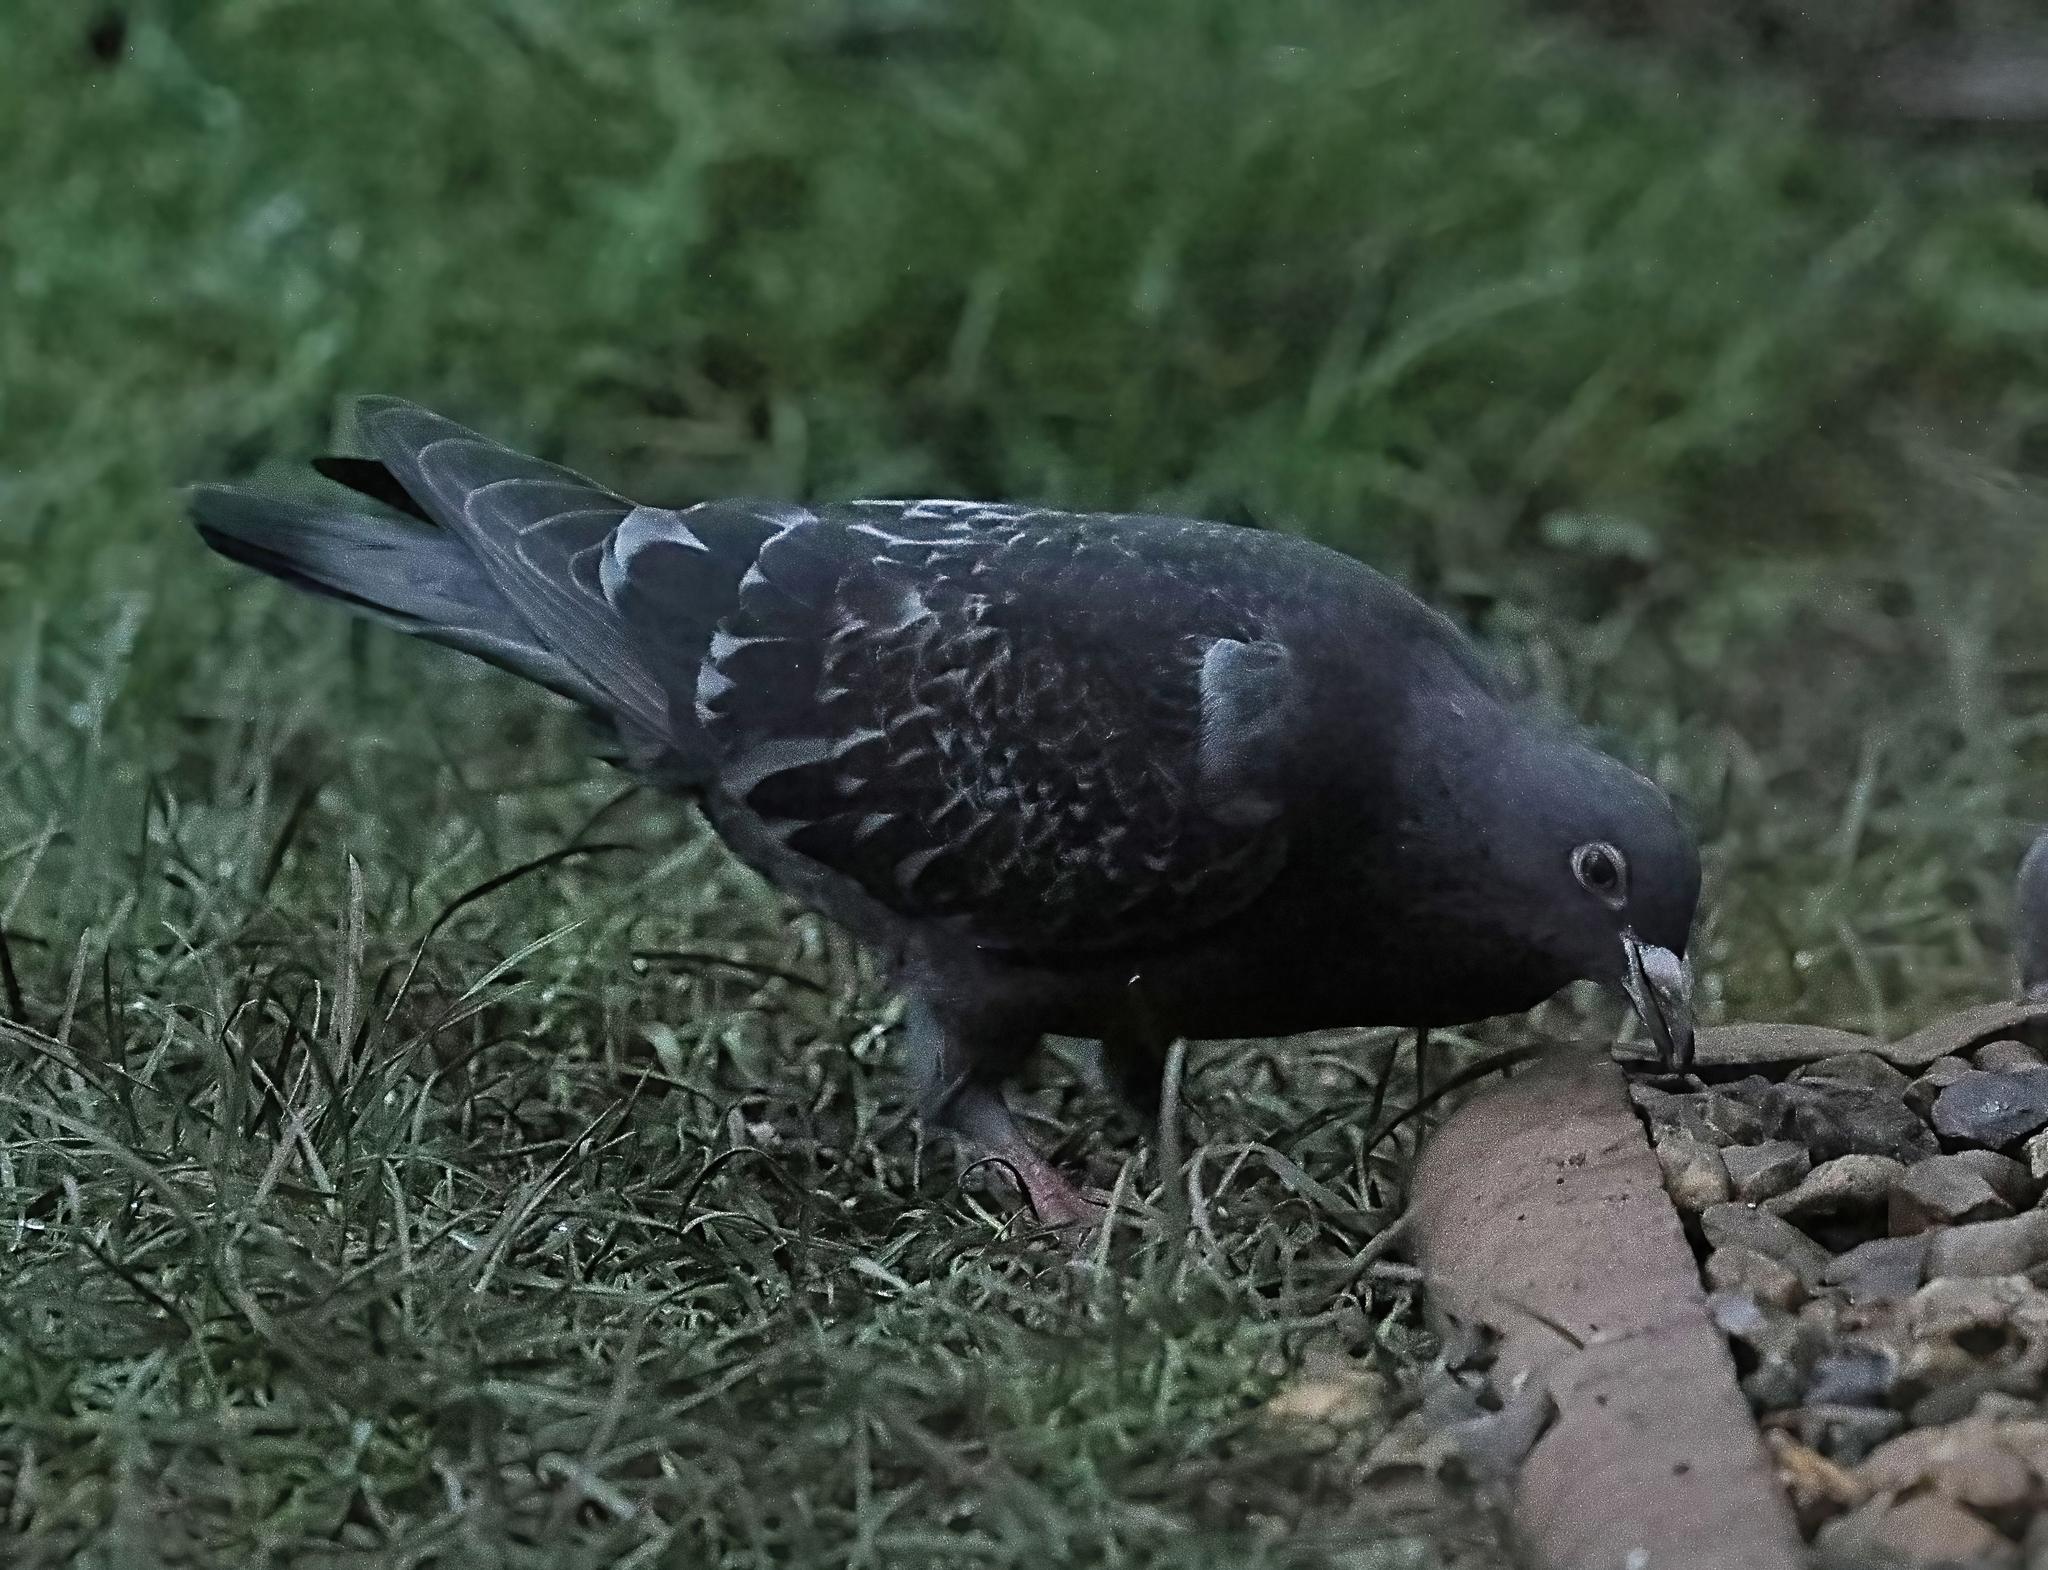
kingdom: Animalia
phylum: Chordata
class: Aves
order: Columbiformes
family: Columbidae
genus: Columba
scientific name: Columba livia
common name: Rock pigeon
